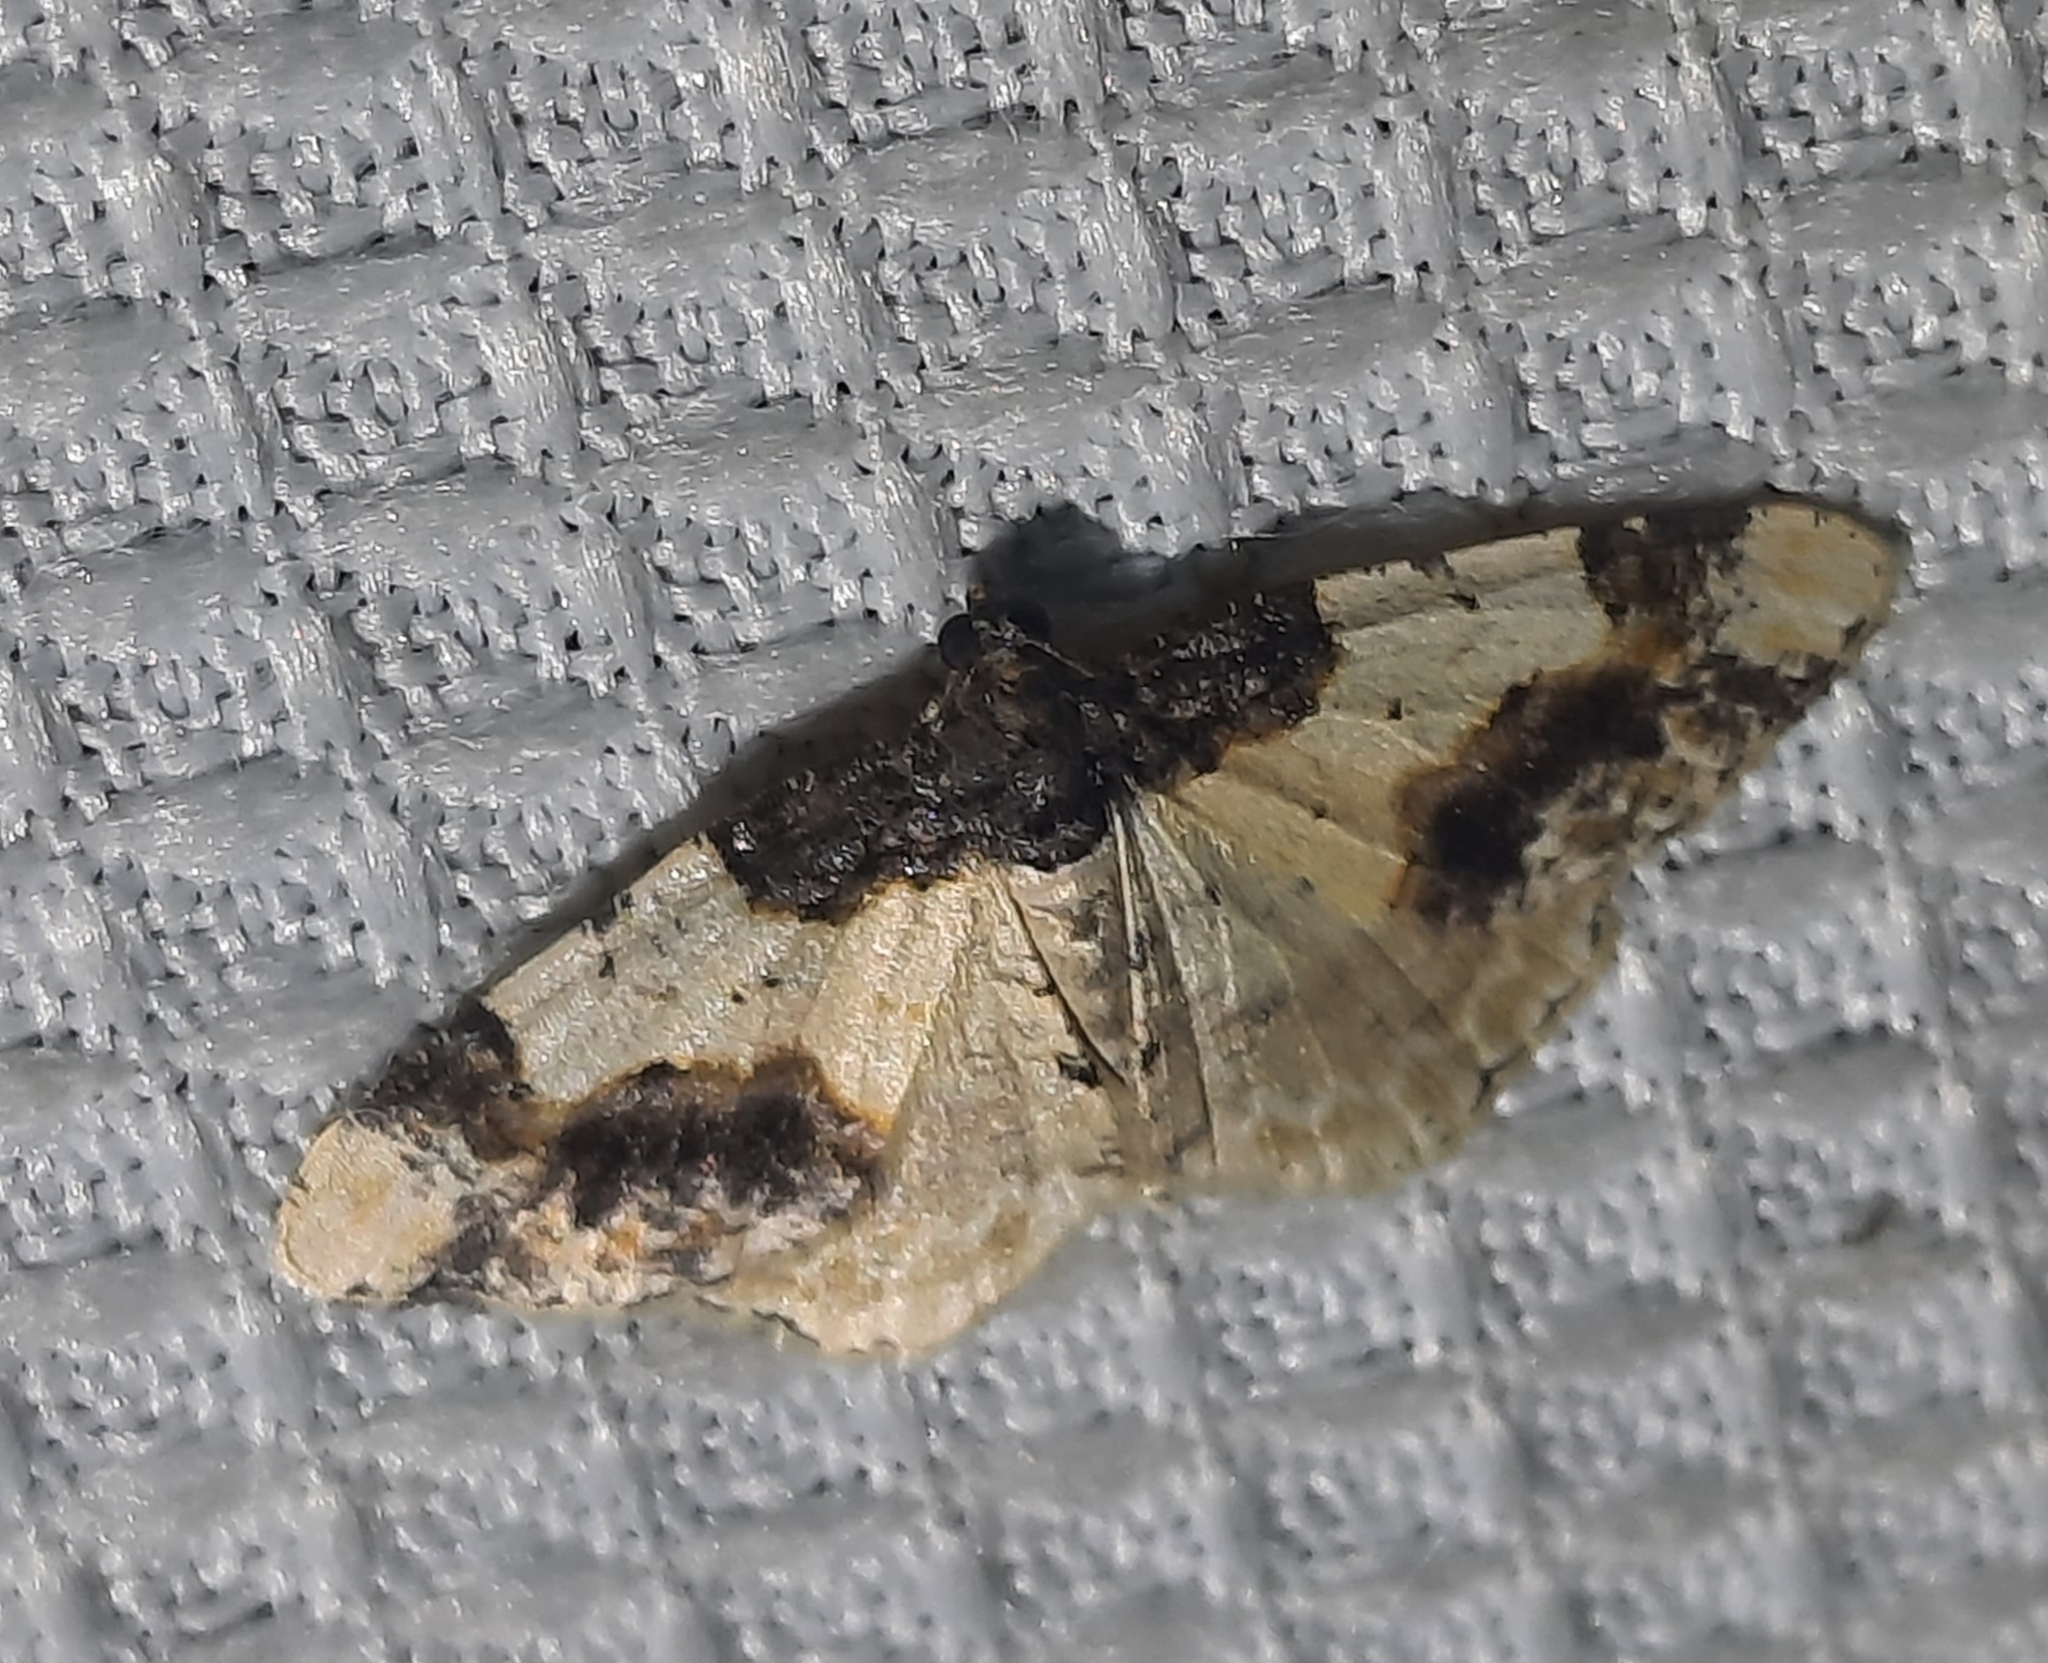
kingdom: Animalia
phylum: Arthropoda
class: Insecta
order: Lepidoptera
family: Geometridae
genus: Ligdia
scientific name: Ligdia adustata
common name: Scorched carpet
